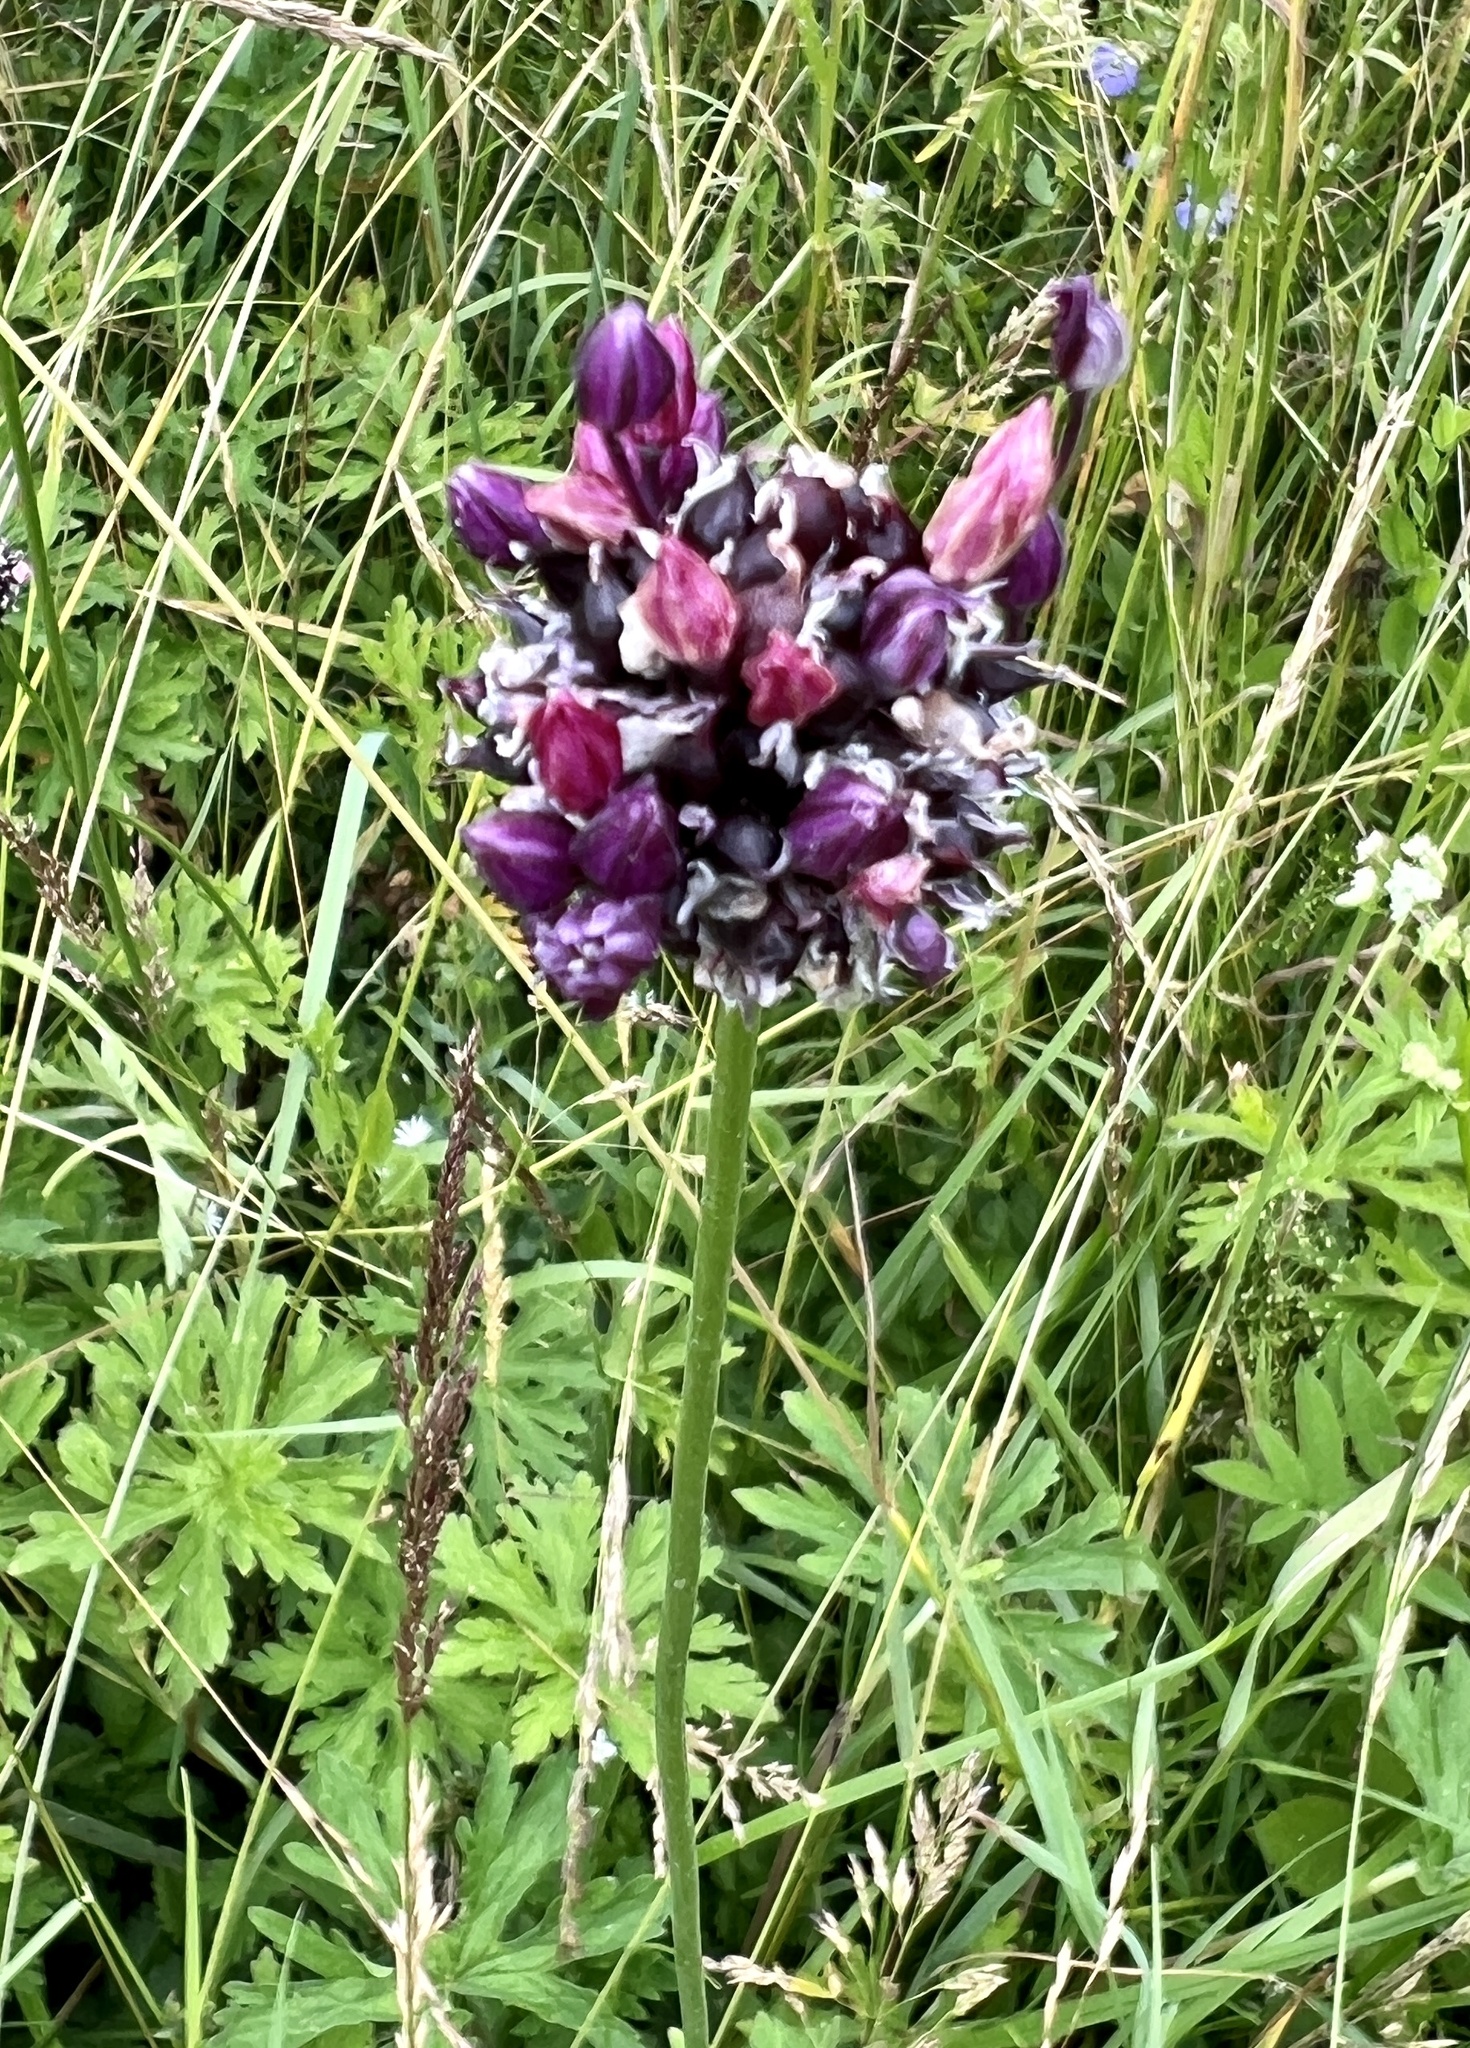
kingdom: Plantae
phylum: Tracheophyta
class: Liliopsida
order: Asparagales
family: Amaryllidaceae
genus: Allium
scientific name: Allium scorodoprasum
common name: Sand leek
